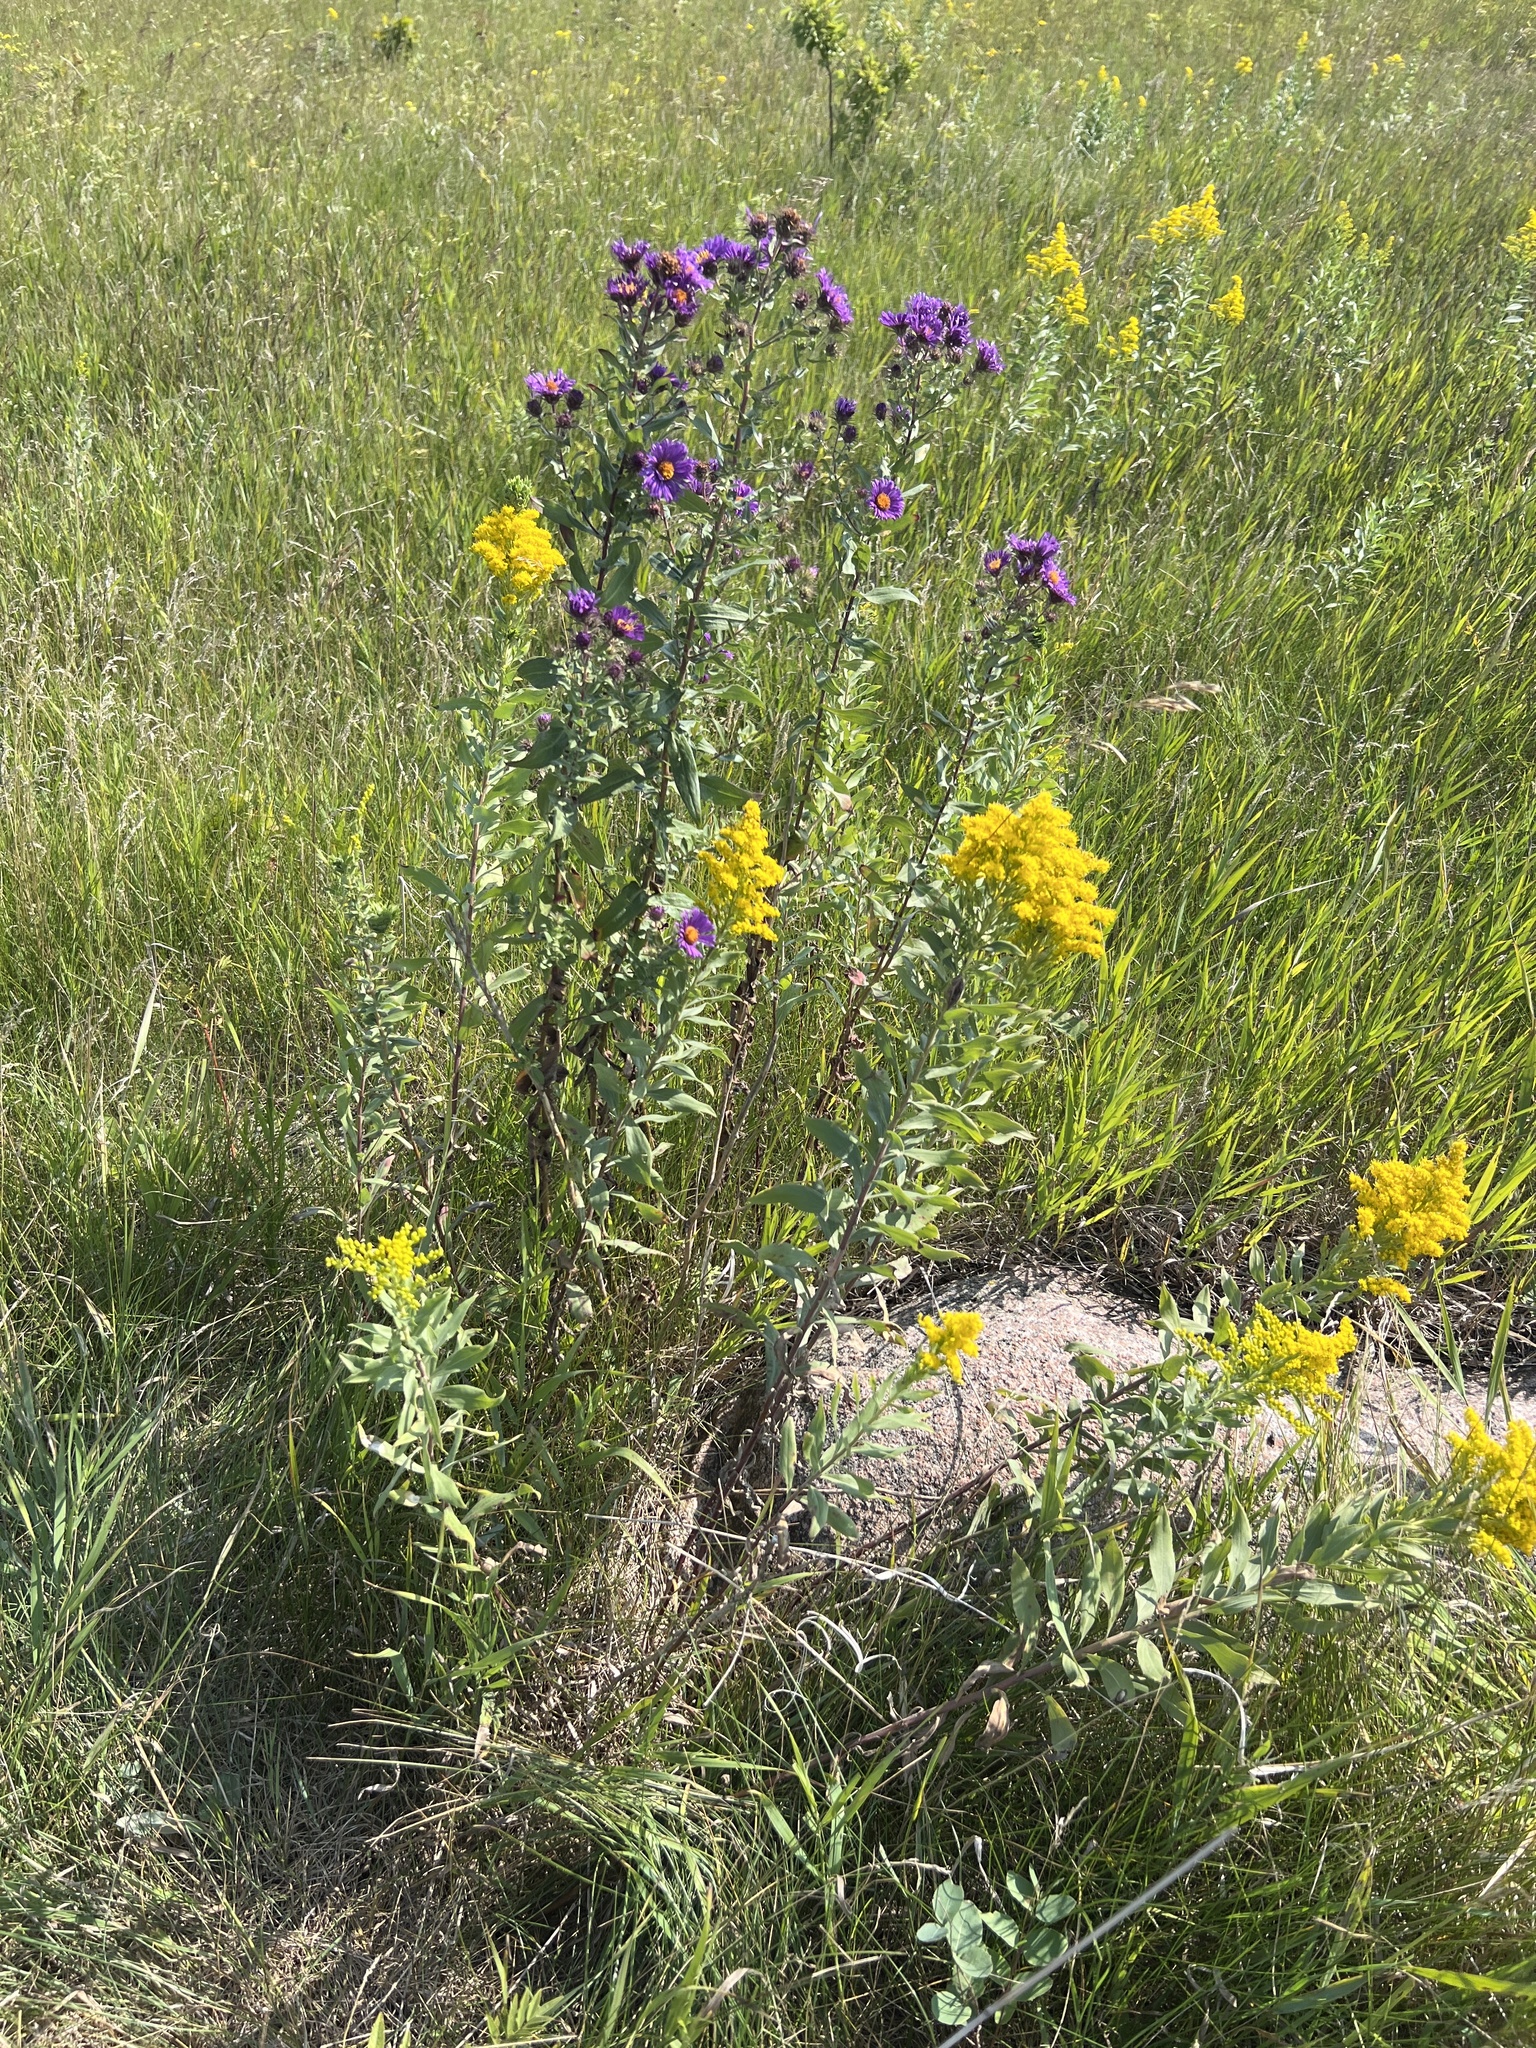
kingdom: Plantae
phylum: Tracheophyta
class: Magnoliopsida
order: Asterales
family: Asteraceae
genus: Symphyotrichum
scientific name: Symphyotrichum novae-angliae
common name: Michaelmas daisy
